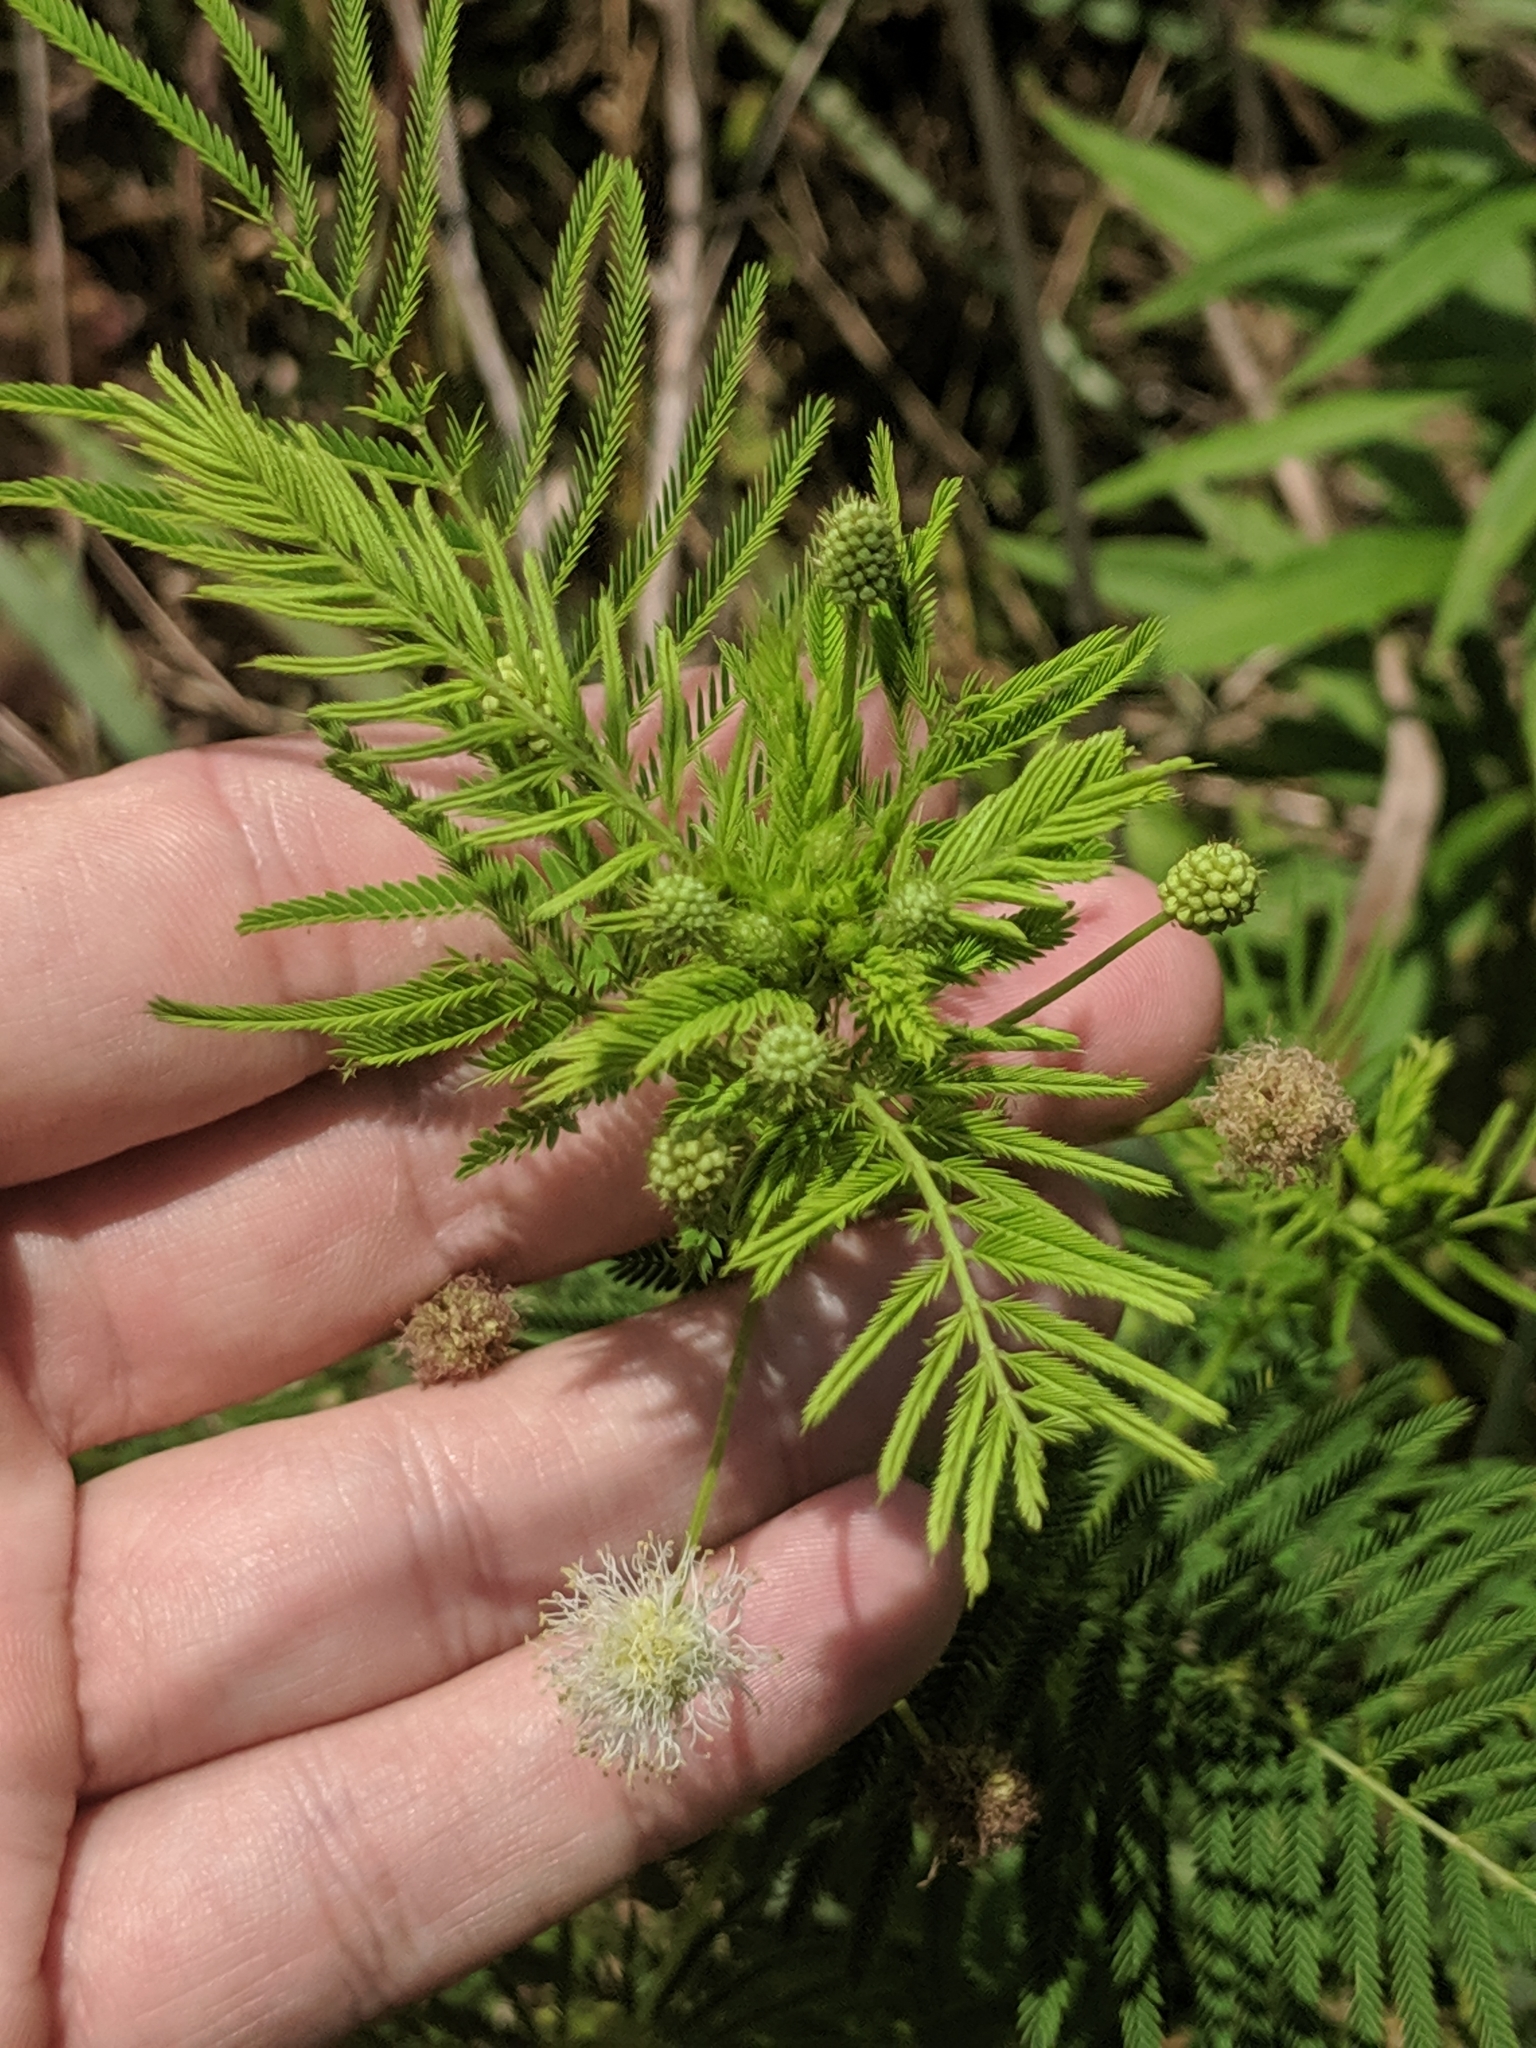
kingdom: Plantae
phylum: Tracheophyta
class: Magnoliopsida
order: Fabales
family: Fabaceae
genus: Desmanthus
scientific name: Desmanthus illinoensis
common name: Illinois bundle-flower
